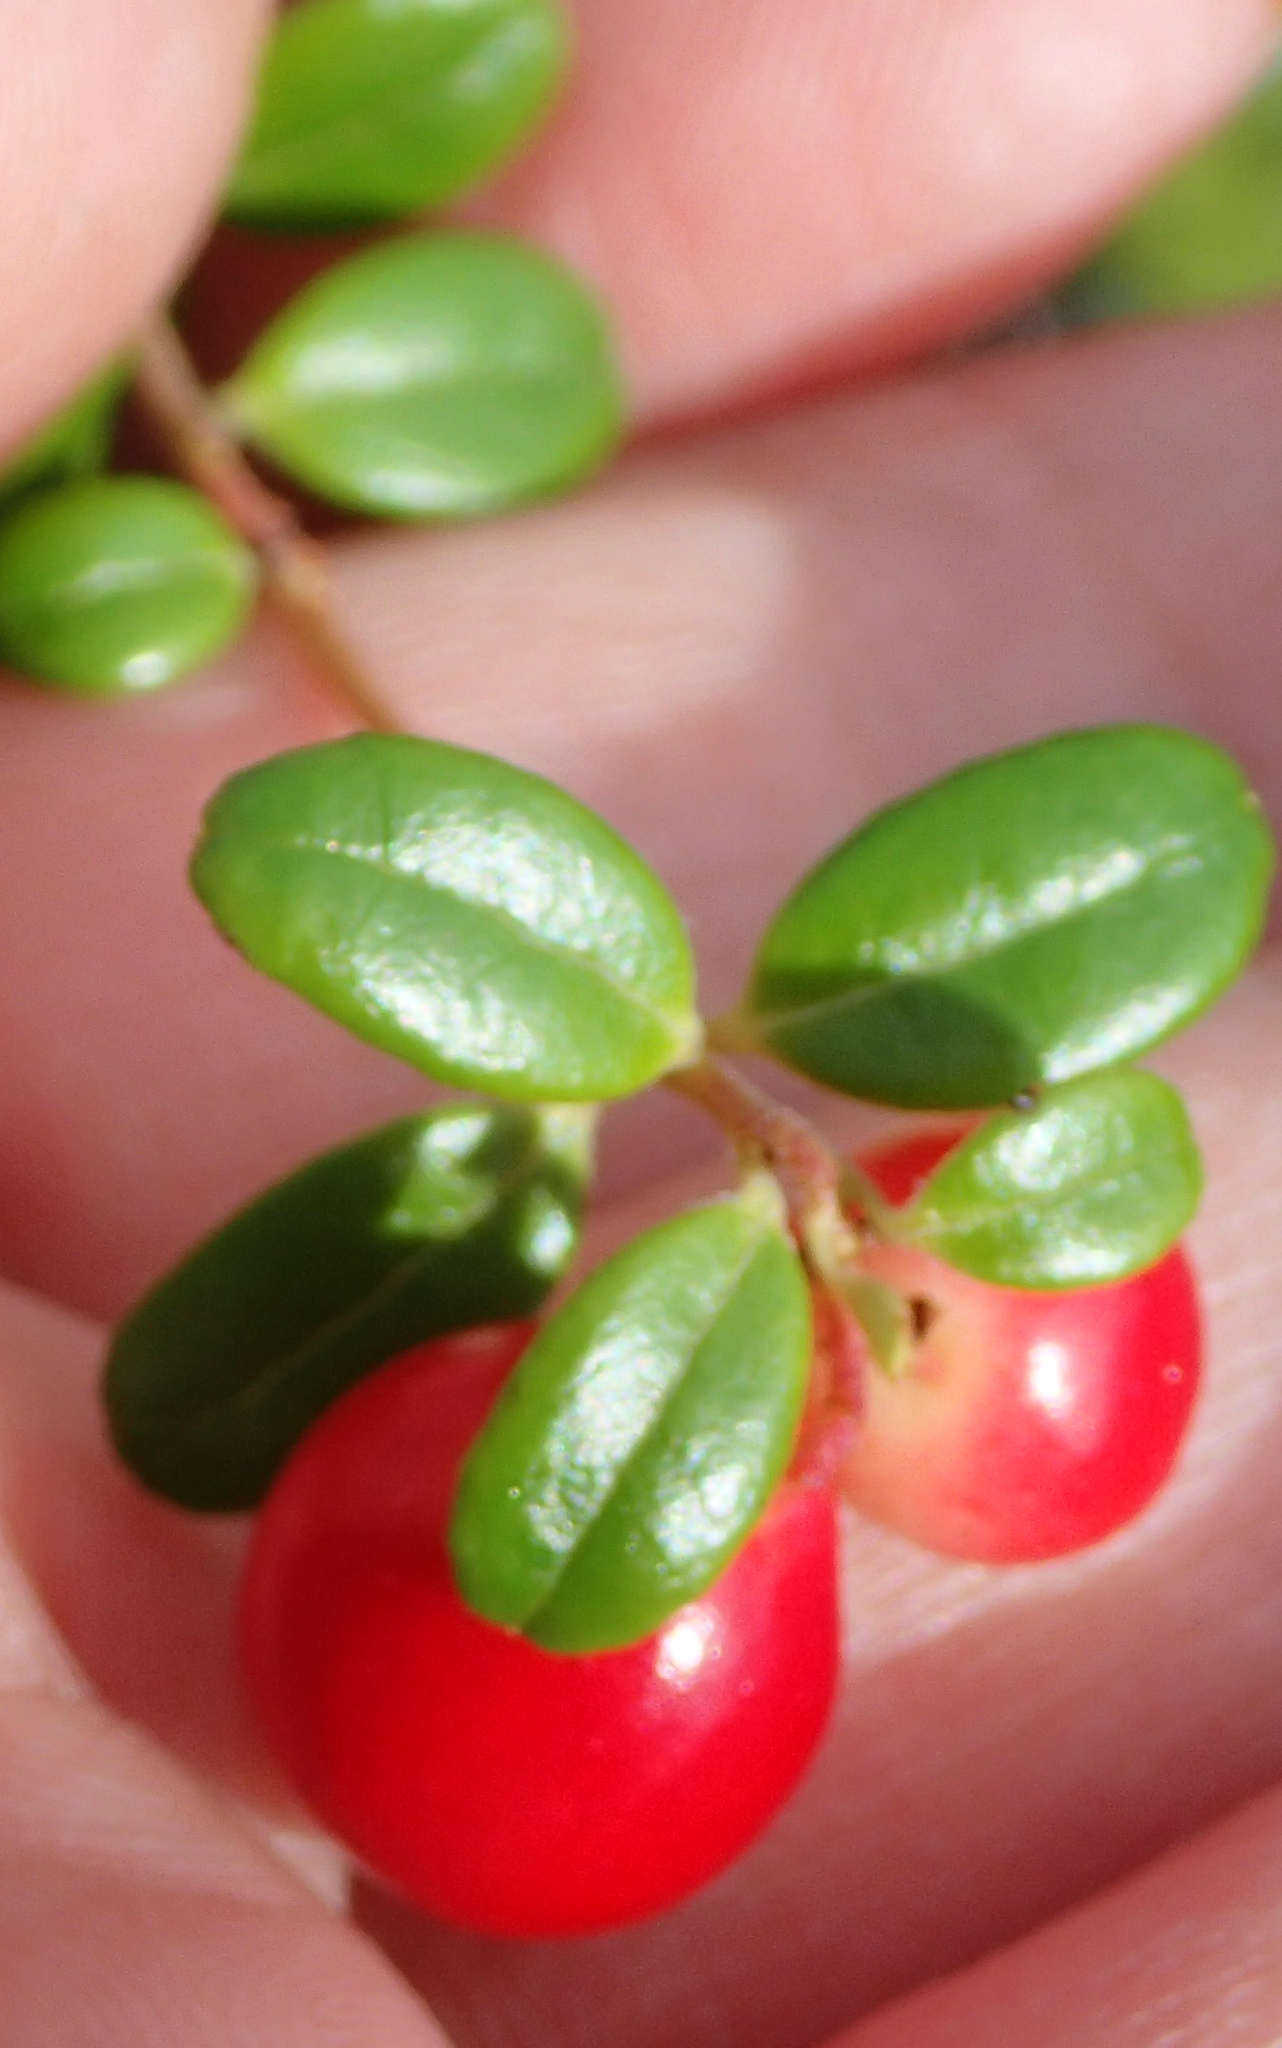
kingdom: Plantae
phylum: Tracheophyta
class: Magnoliopsida
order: Ericales
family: Ericaceae
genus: Vaccinium
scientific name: Vaccinium vitis-idaea
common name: Cowberry
